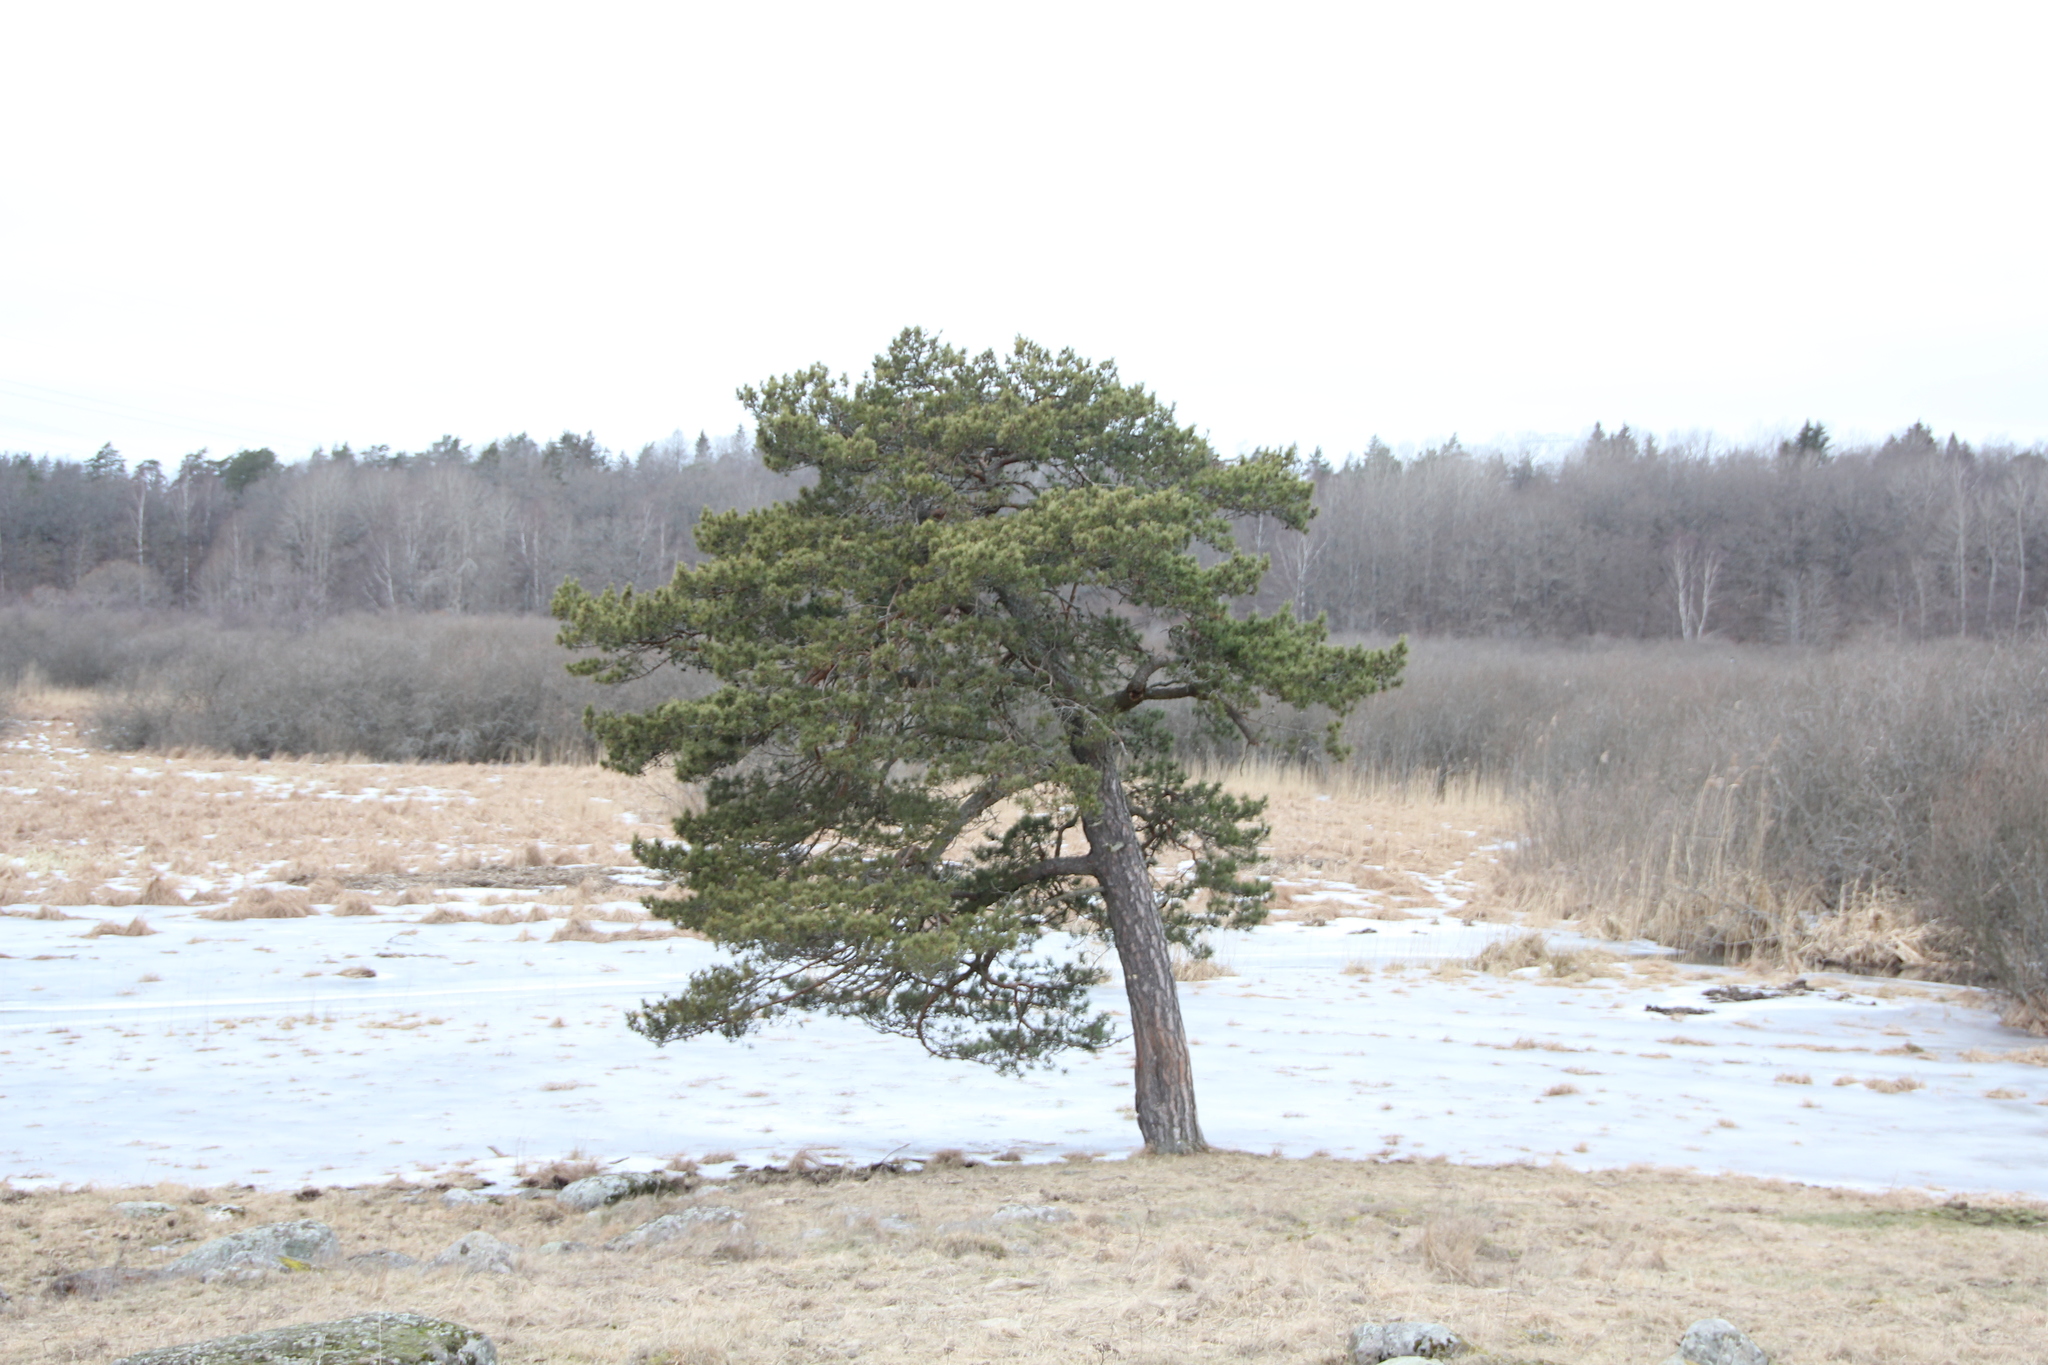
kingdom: Plantae
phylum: Tracheophyta
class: Pinopsida
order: Pinales
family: Pinaceae
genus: Pinus
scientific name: Pinus sylvestris
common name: Scots pine
